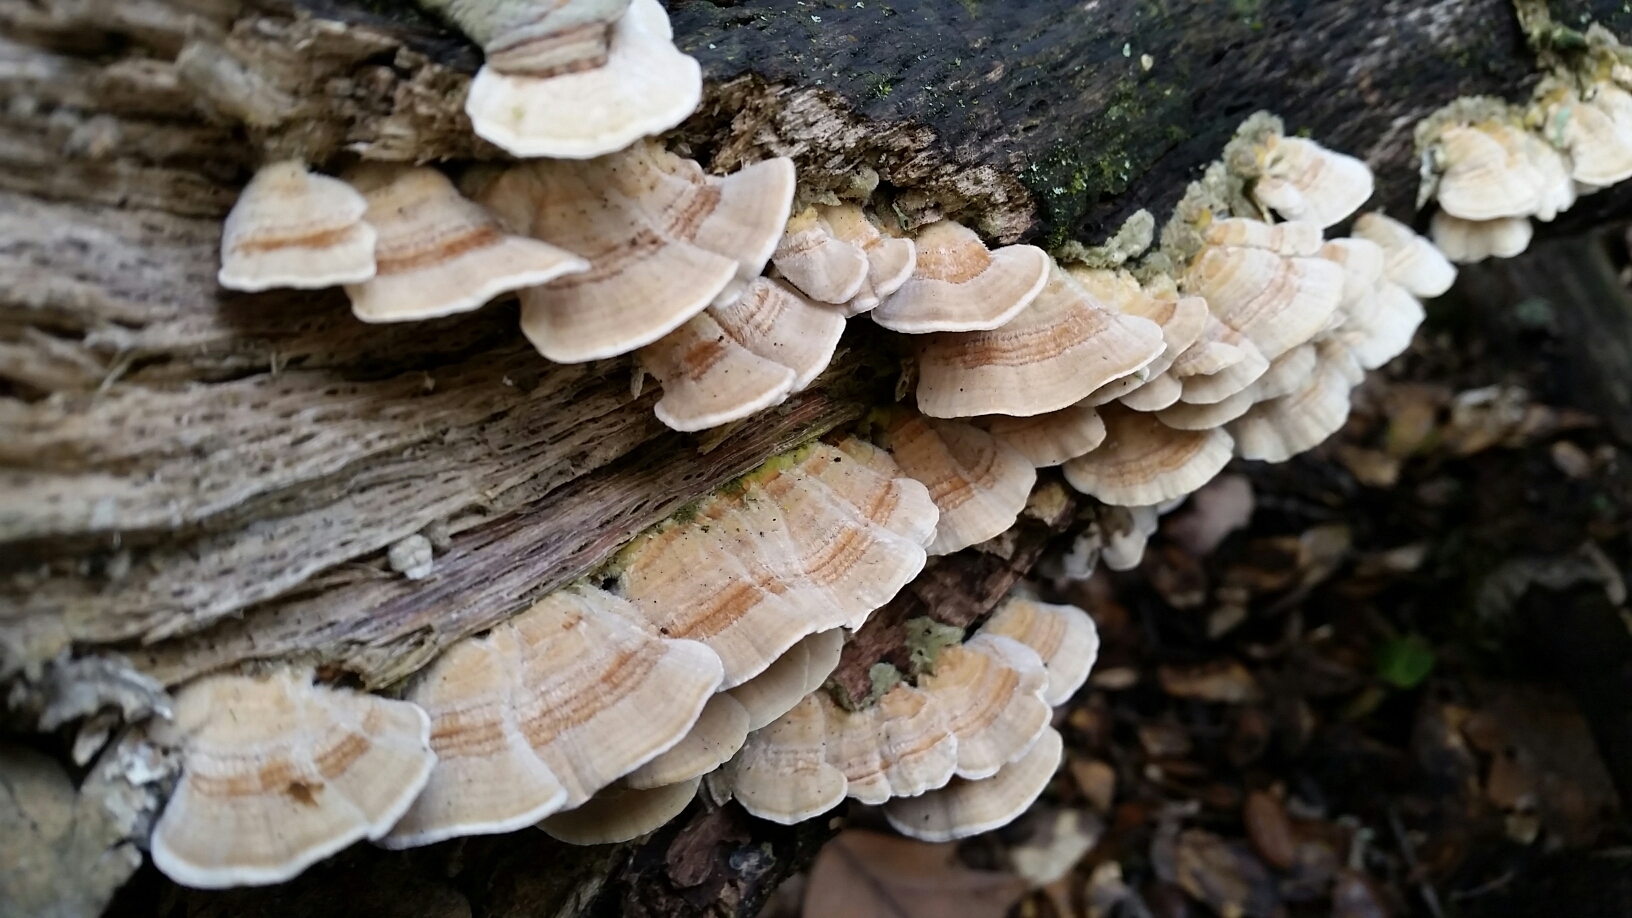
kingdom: Fungi
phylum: Basidiomycota
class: Agaricomycetes
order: Polyporales
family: Polyporaceae
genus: Trametes
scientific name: Trametes versicolor
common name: Turkeytail
